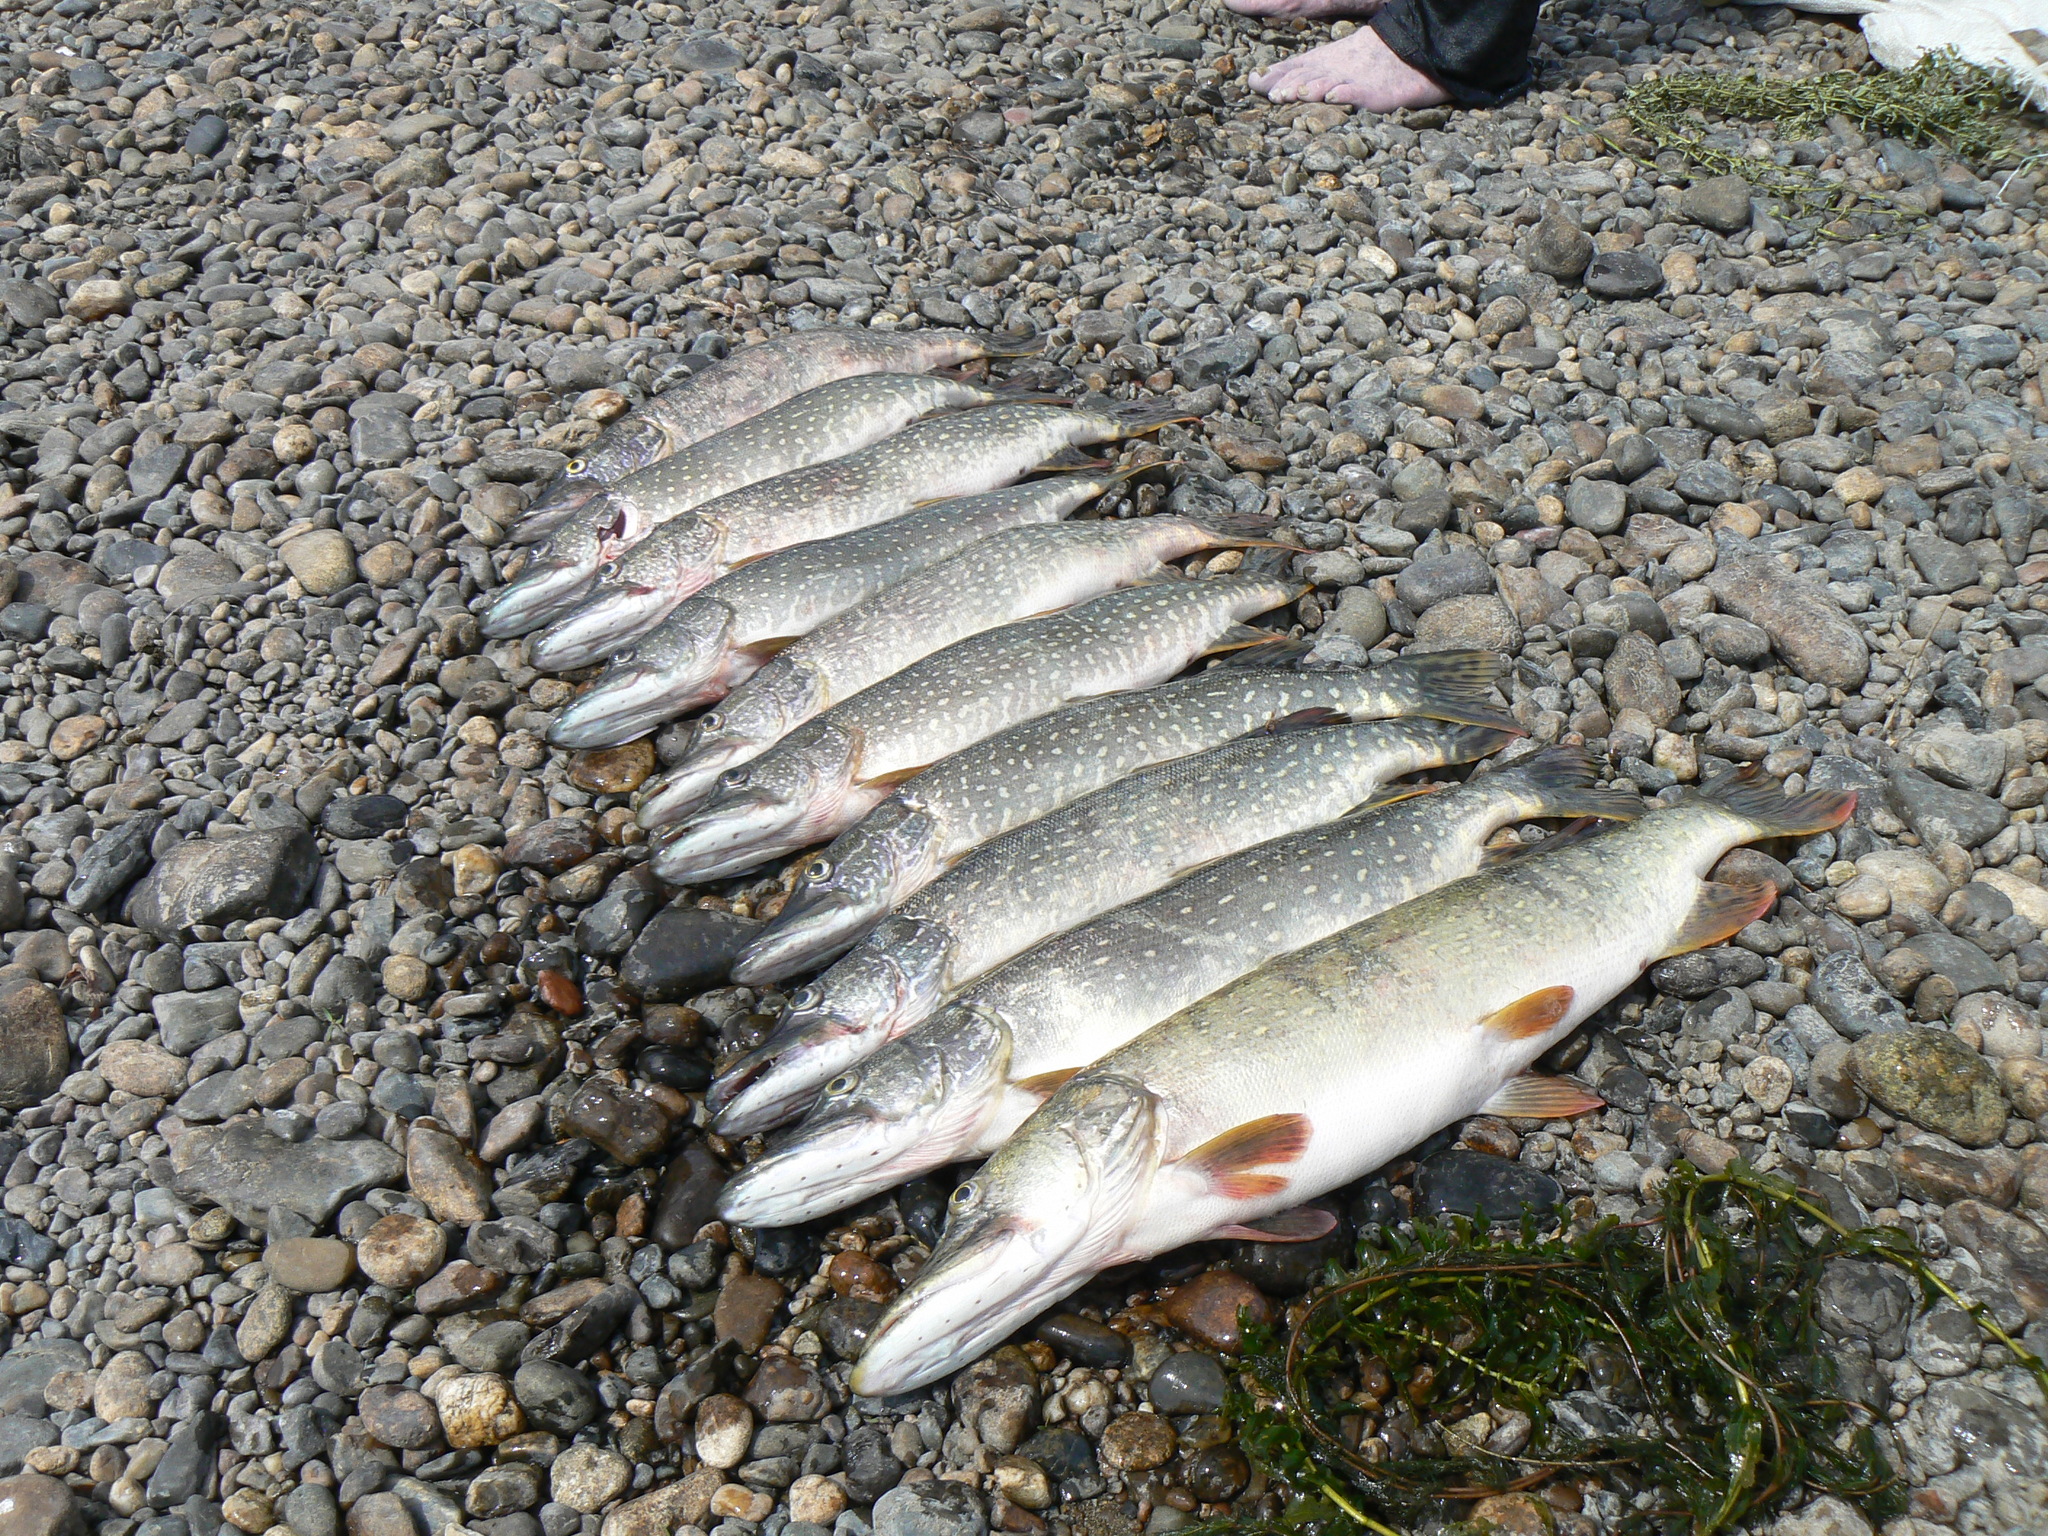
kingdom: Animalia
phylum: Chordata
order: Esociformes
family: Esocidae
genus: Esox
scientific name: Esox lucius
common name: Northern pike
